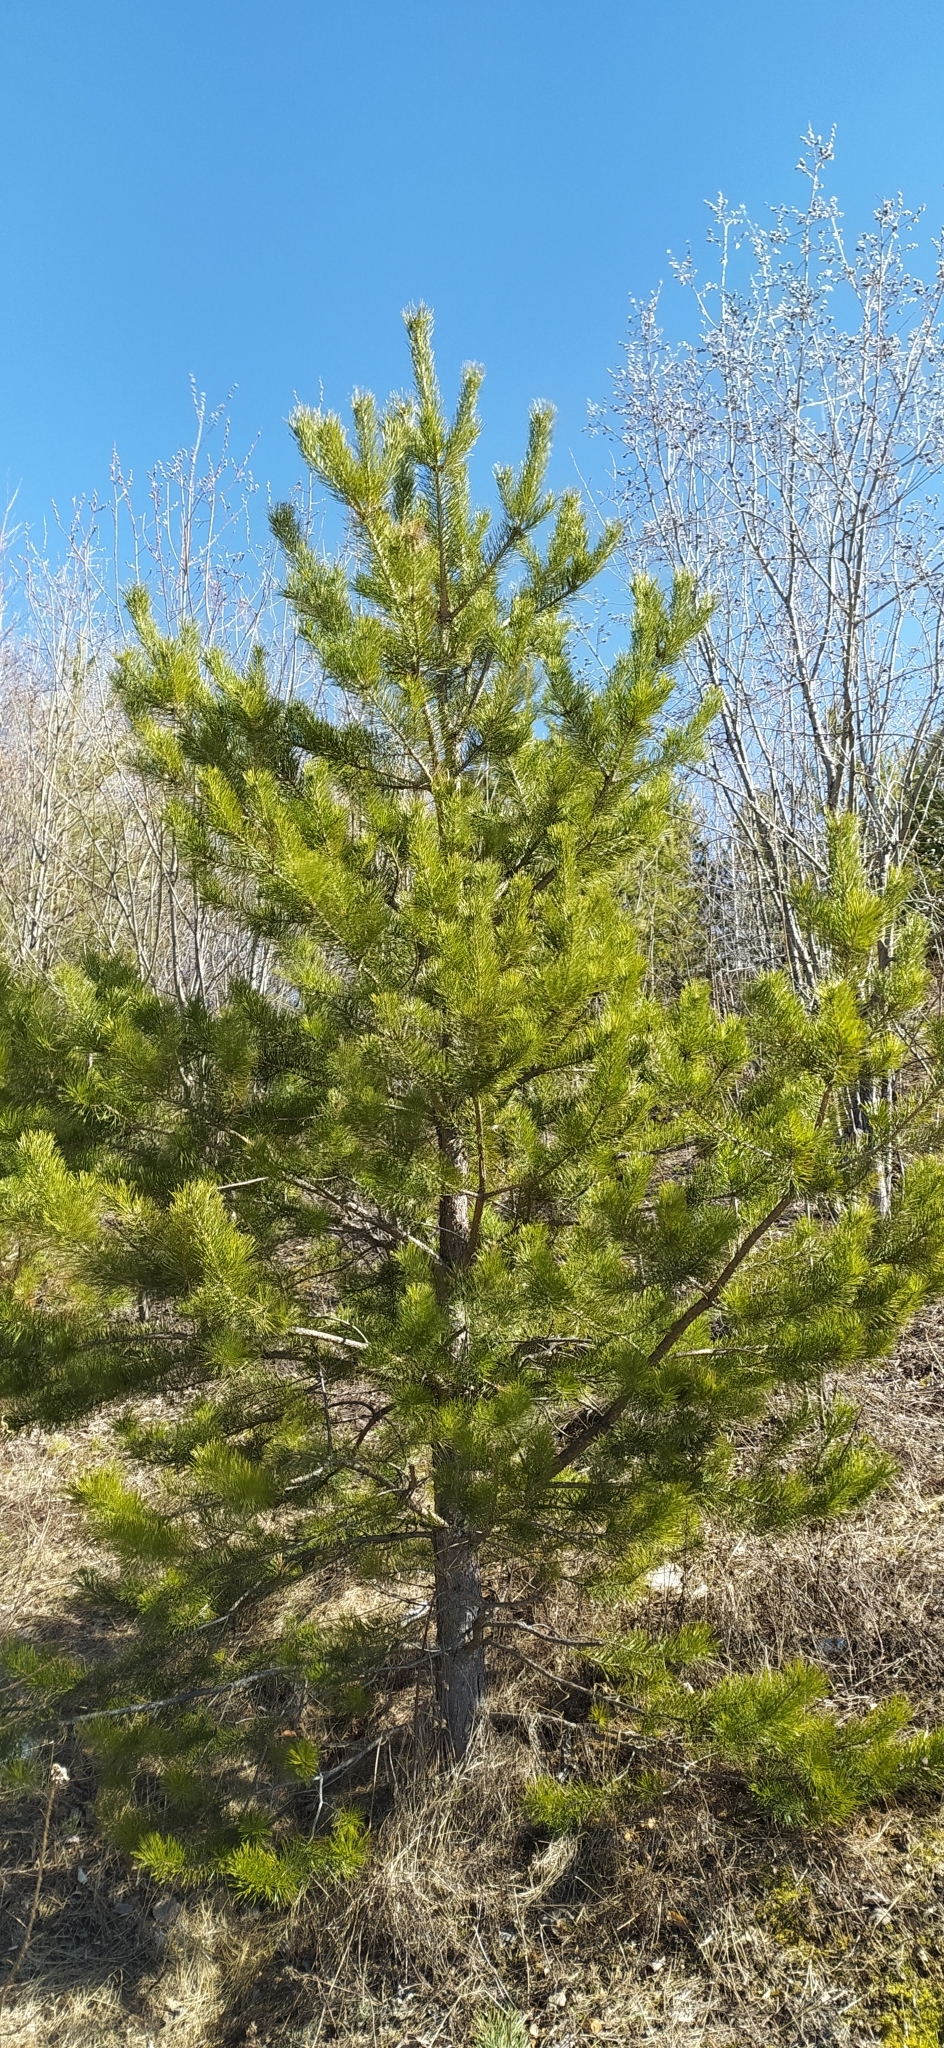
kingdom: Plantae
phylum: Tracheophyta
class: Pinopsida
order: Pinales
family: Pinaceae
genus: Pinus
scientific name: Pinus sylvestris
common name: Scots pine
